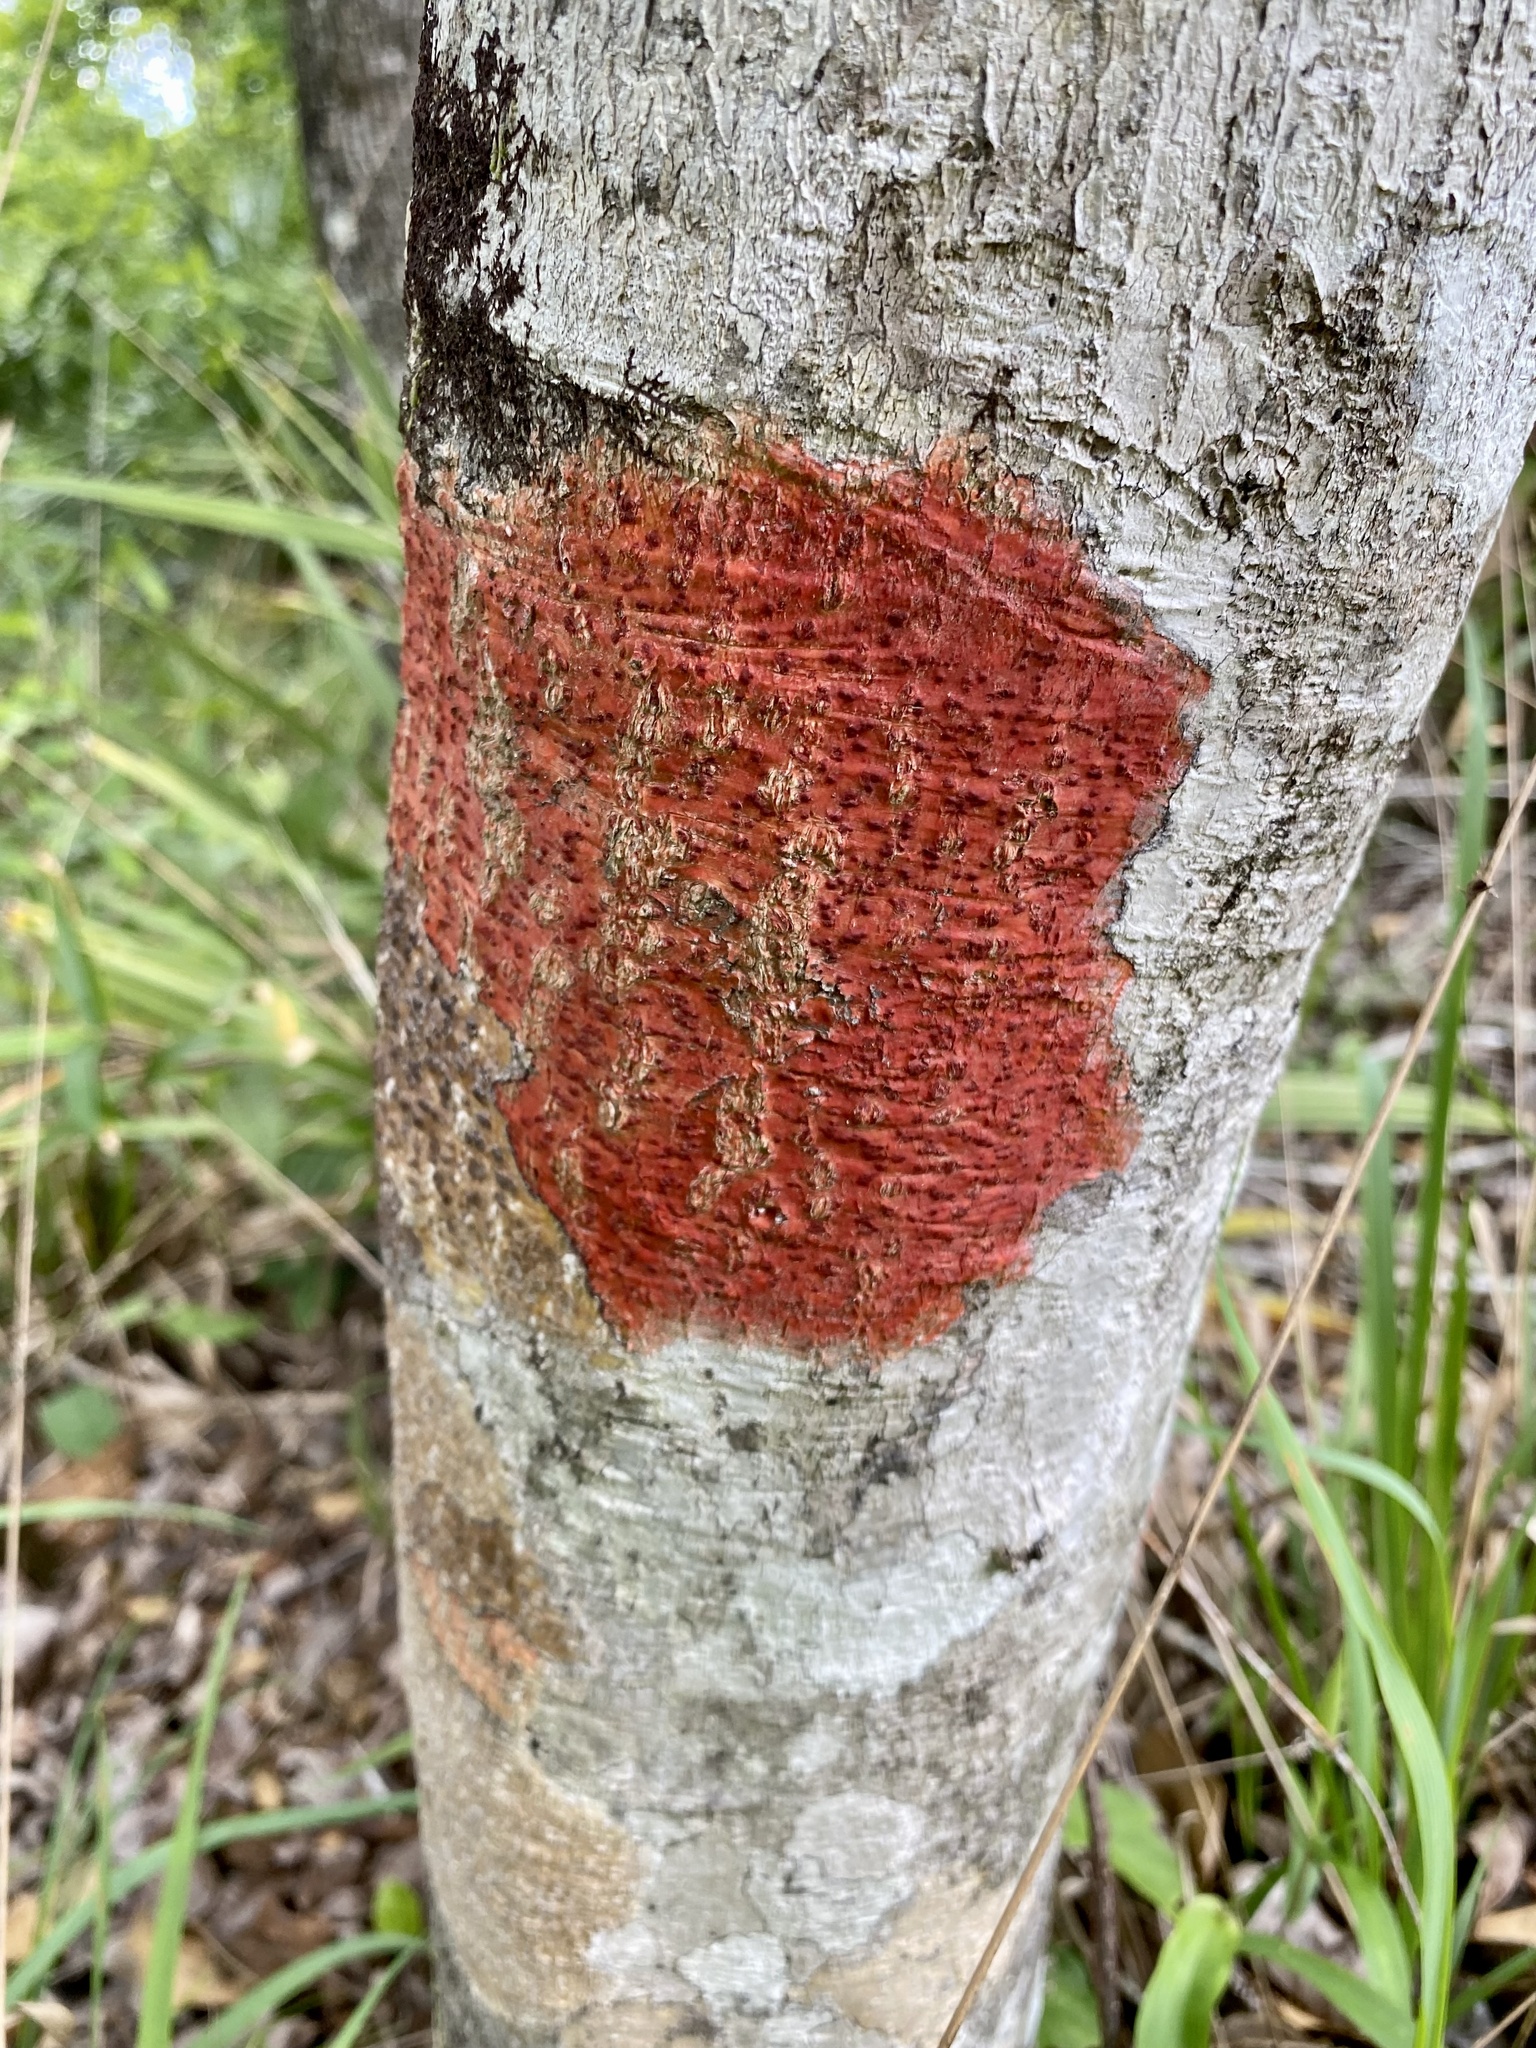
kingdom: Fungi
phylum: Ascomycota
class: Eurotiomycetes
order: Pyrenulales
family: Pyrenulaceae
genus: Pyrenula
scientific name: Pyrenula cruenta
